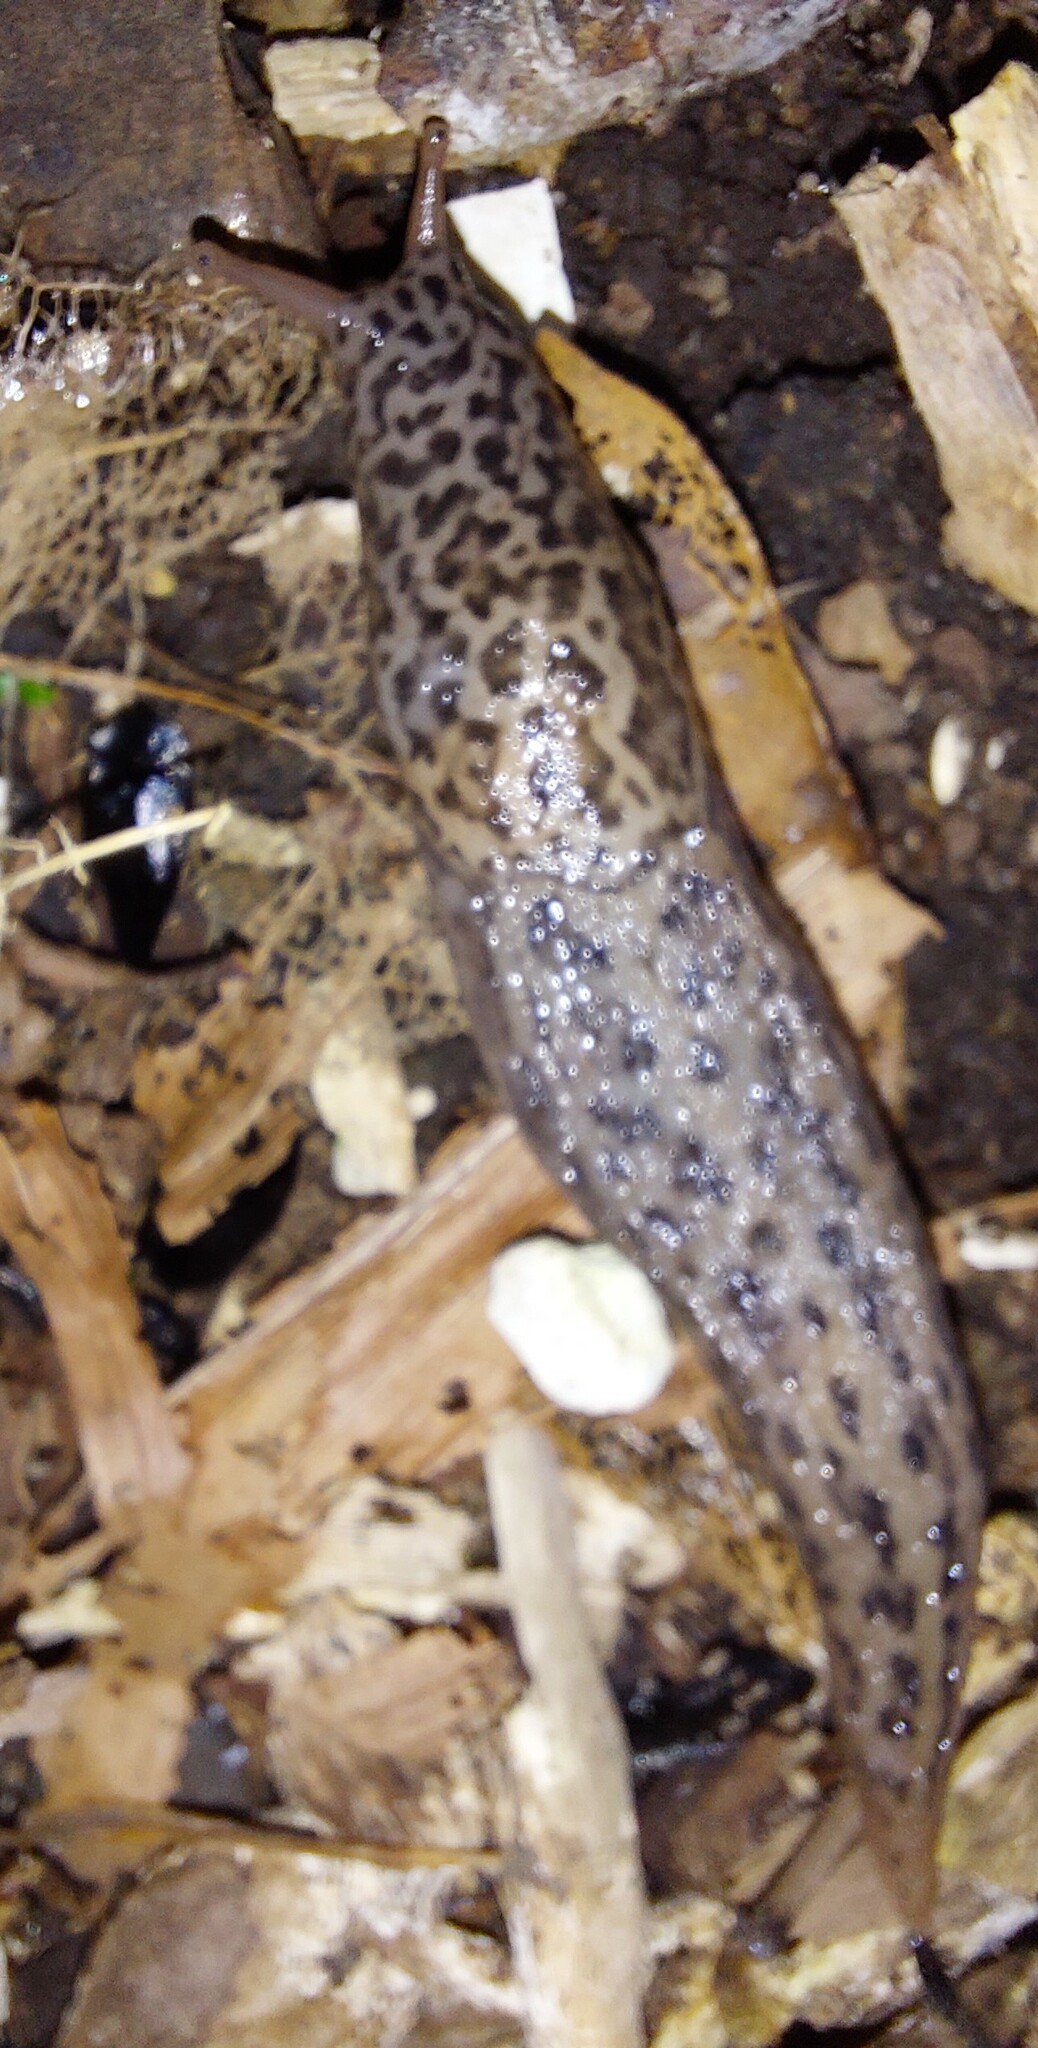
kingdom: Animalia
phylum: Mollusca
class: Gastropoda
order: Stylommatophora
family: Limacidae
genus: Limax
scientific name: Limax maximus
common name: Great grey slug
